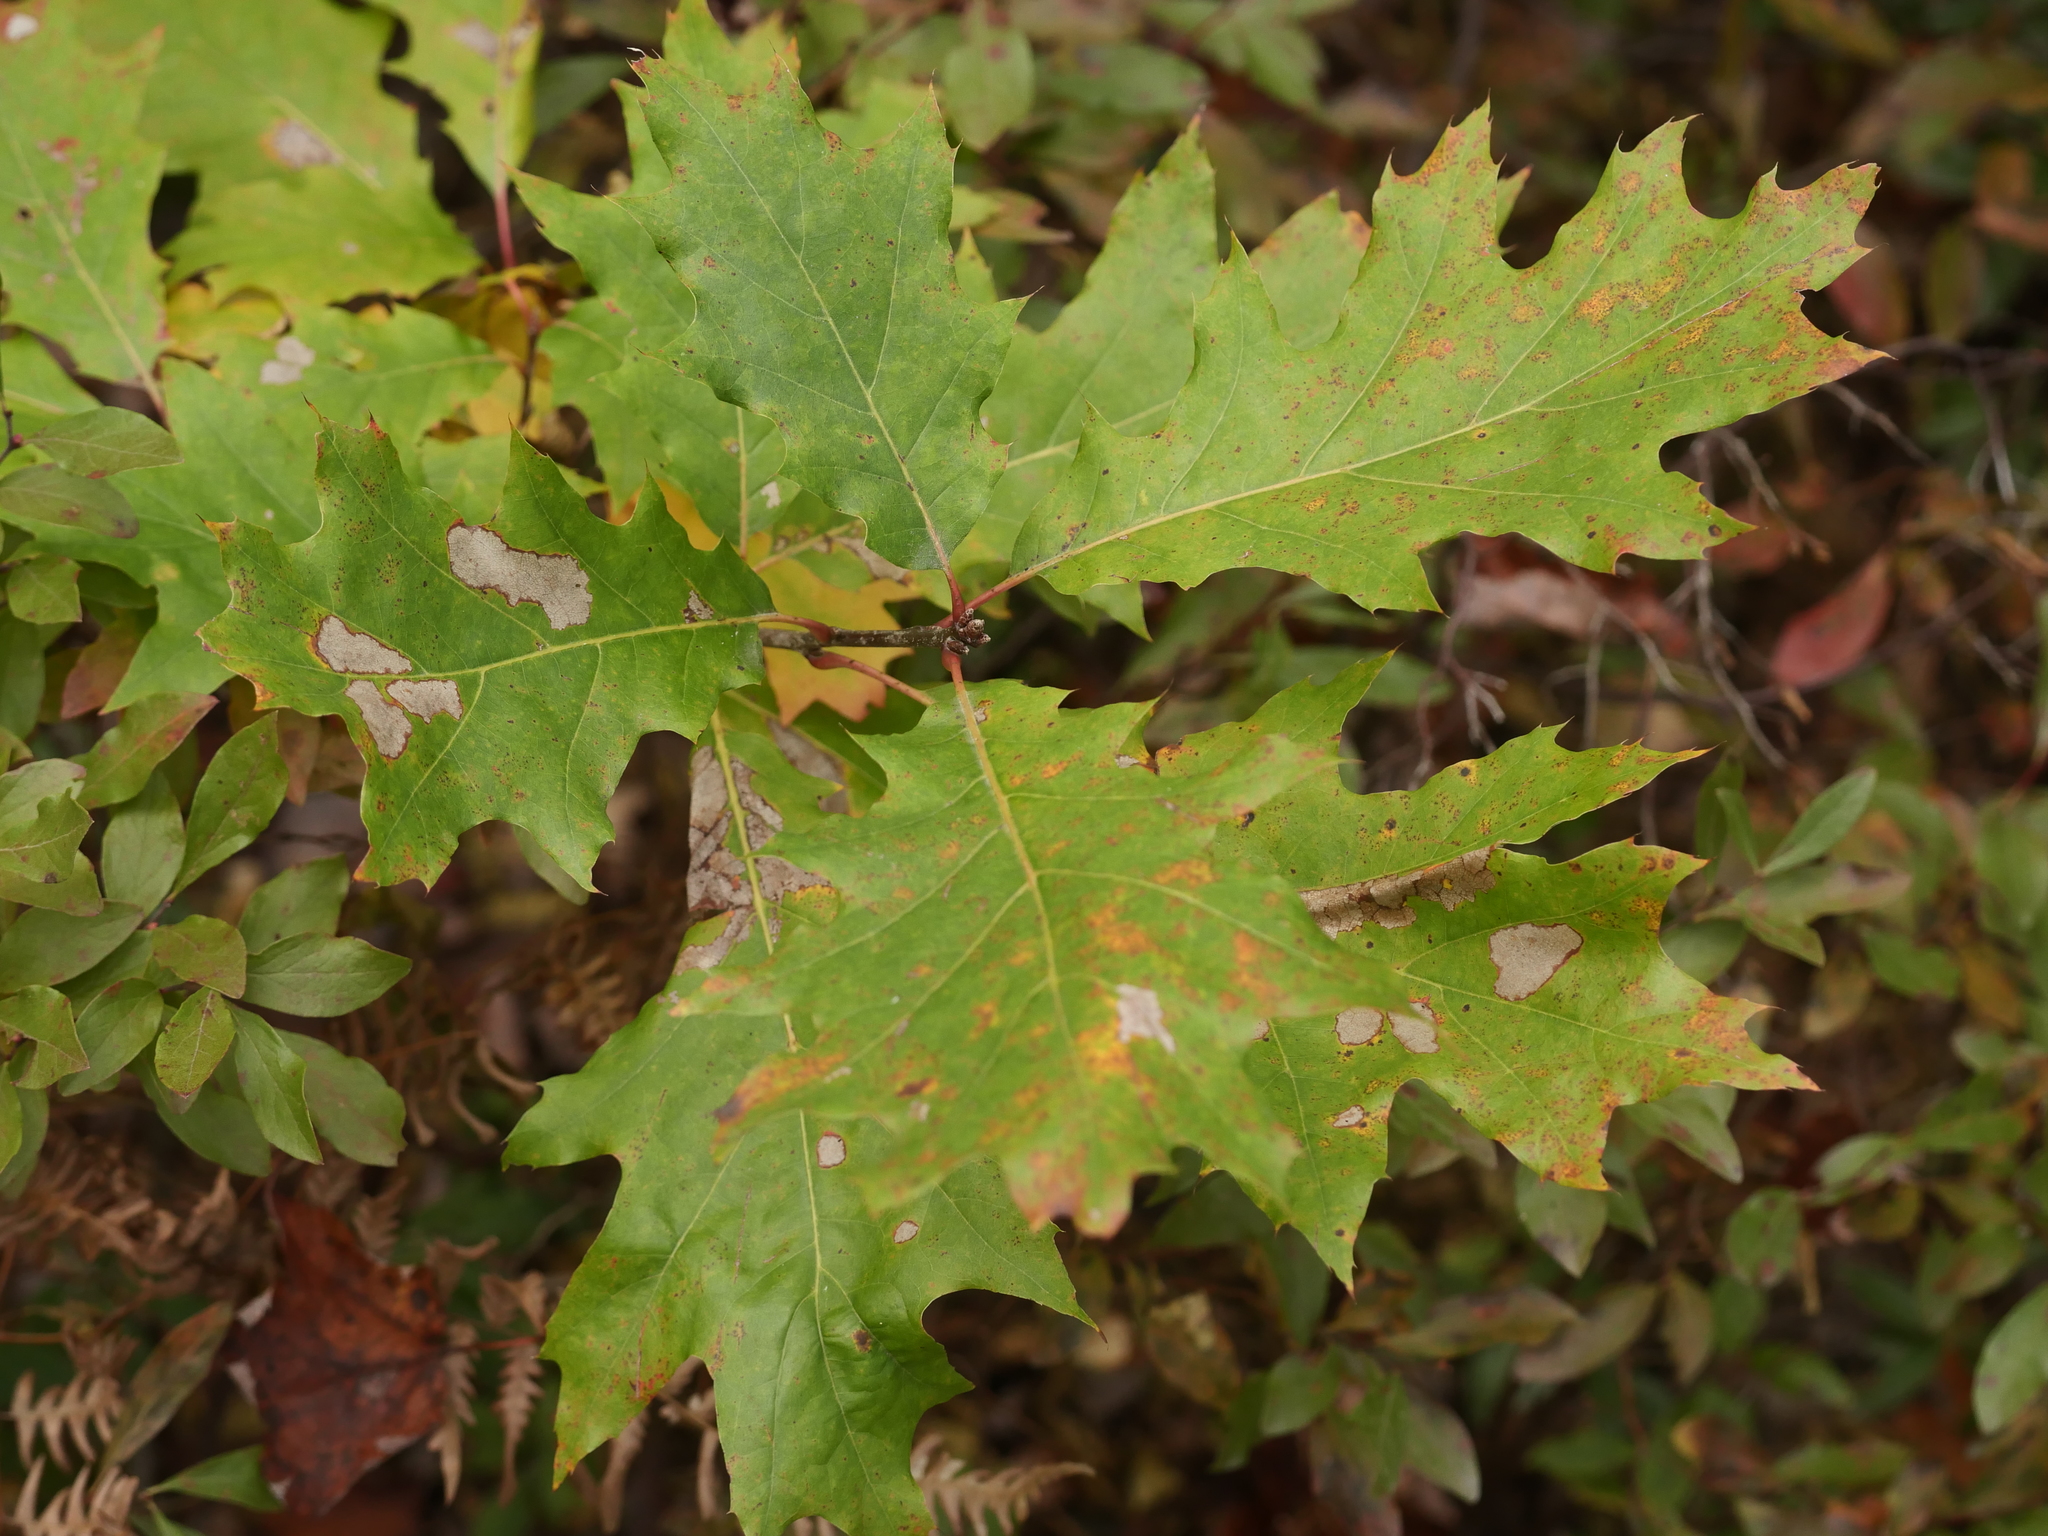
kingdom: Plantae
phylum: Tracheophyta
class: Magnoliopsida
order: Fagales
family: Fagaceae
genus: Quercus
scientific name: Quercus rubra
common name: Red oak
